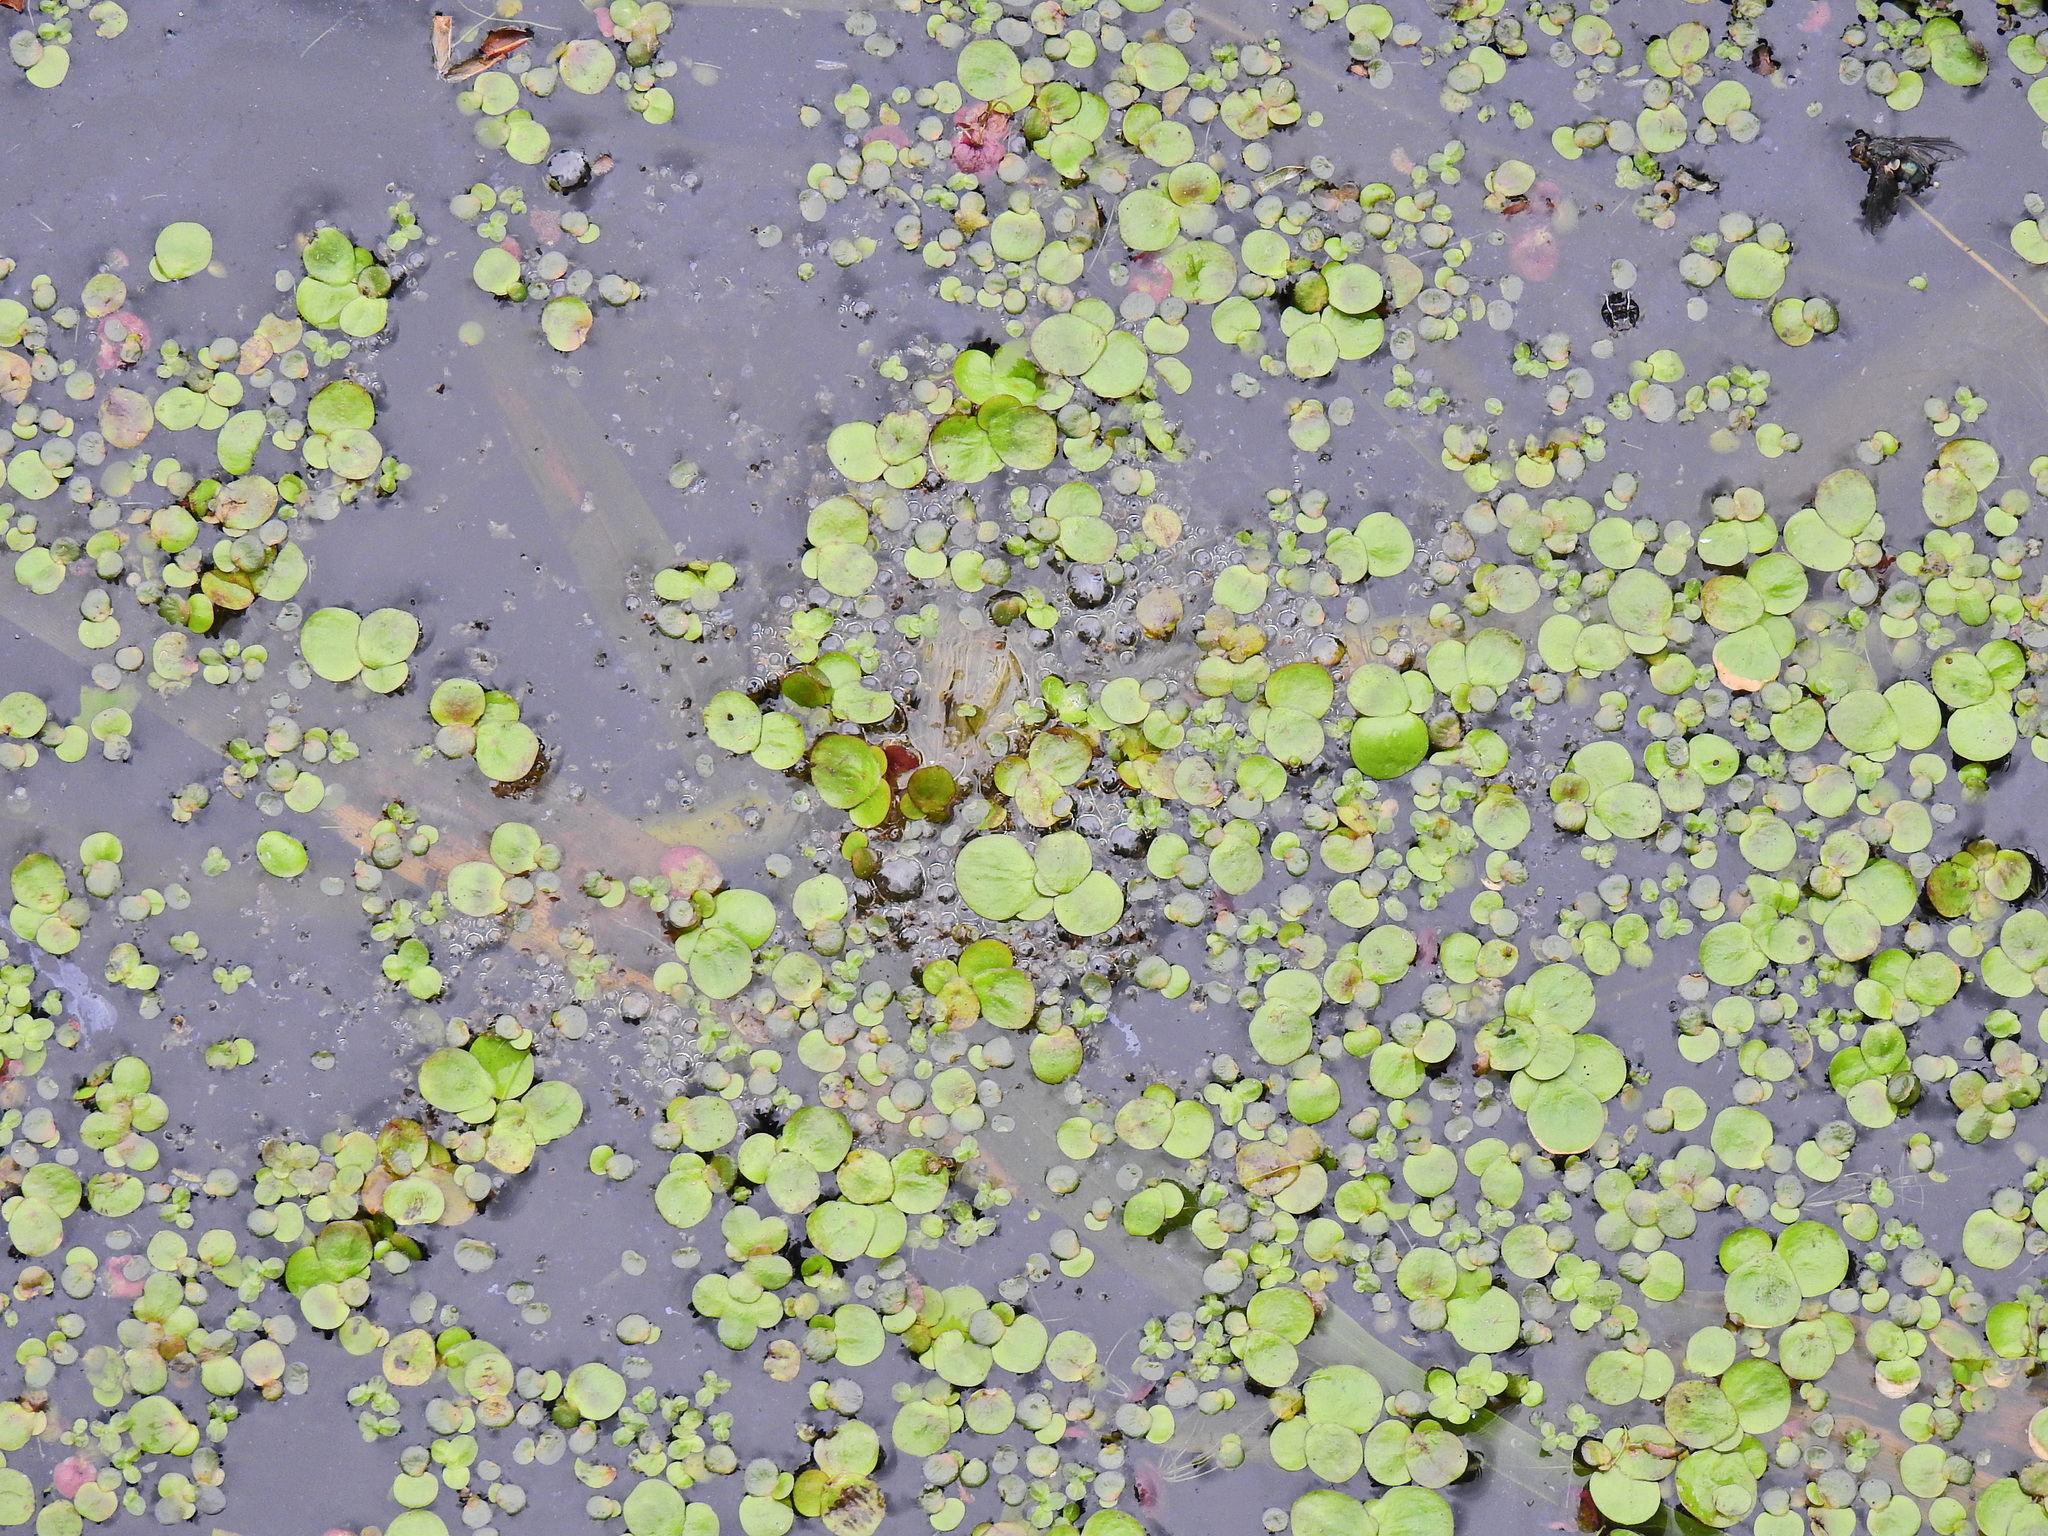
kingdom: Plantae
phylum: Tracheophyta
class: Liliopsida
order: Alismatales
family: Araceae
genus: Spirodela
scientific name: Spirodela polyrhiza
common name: Great duckweed
